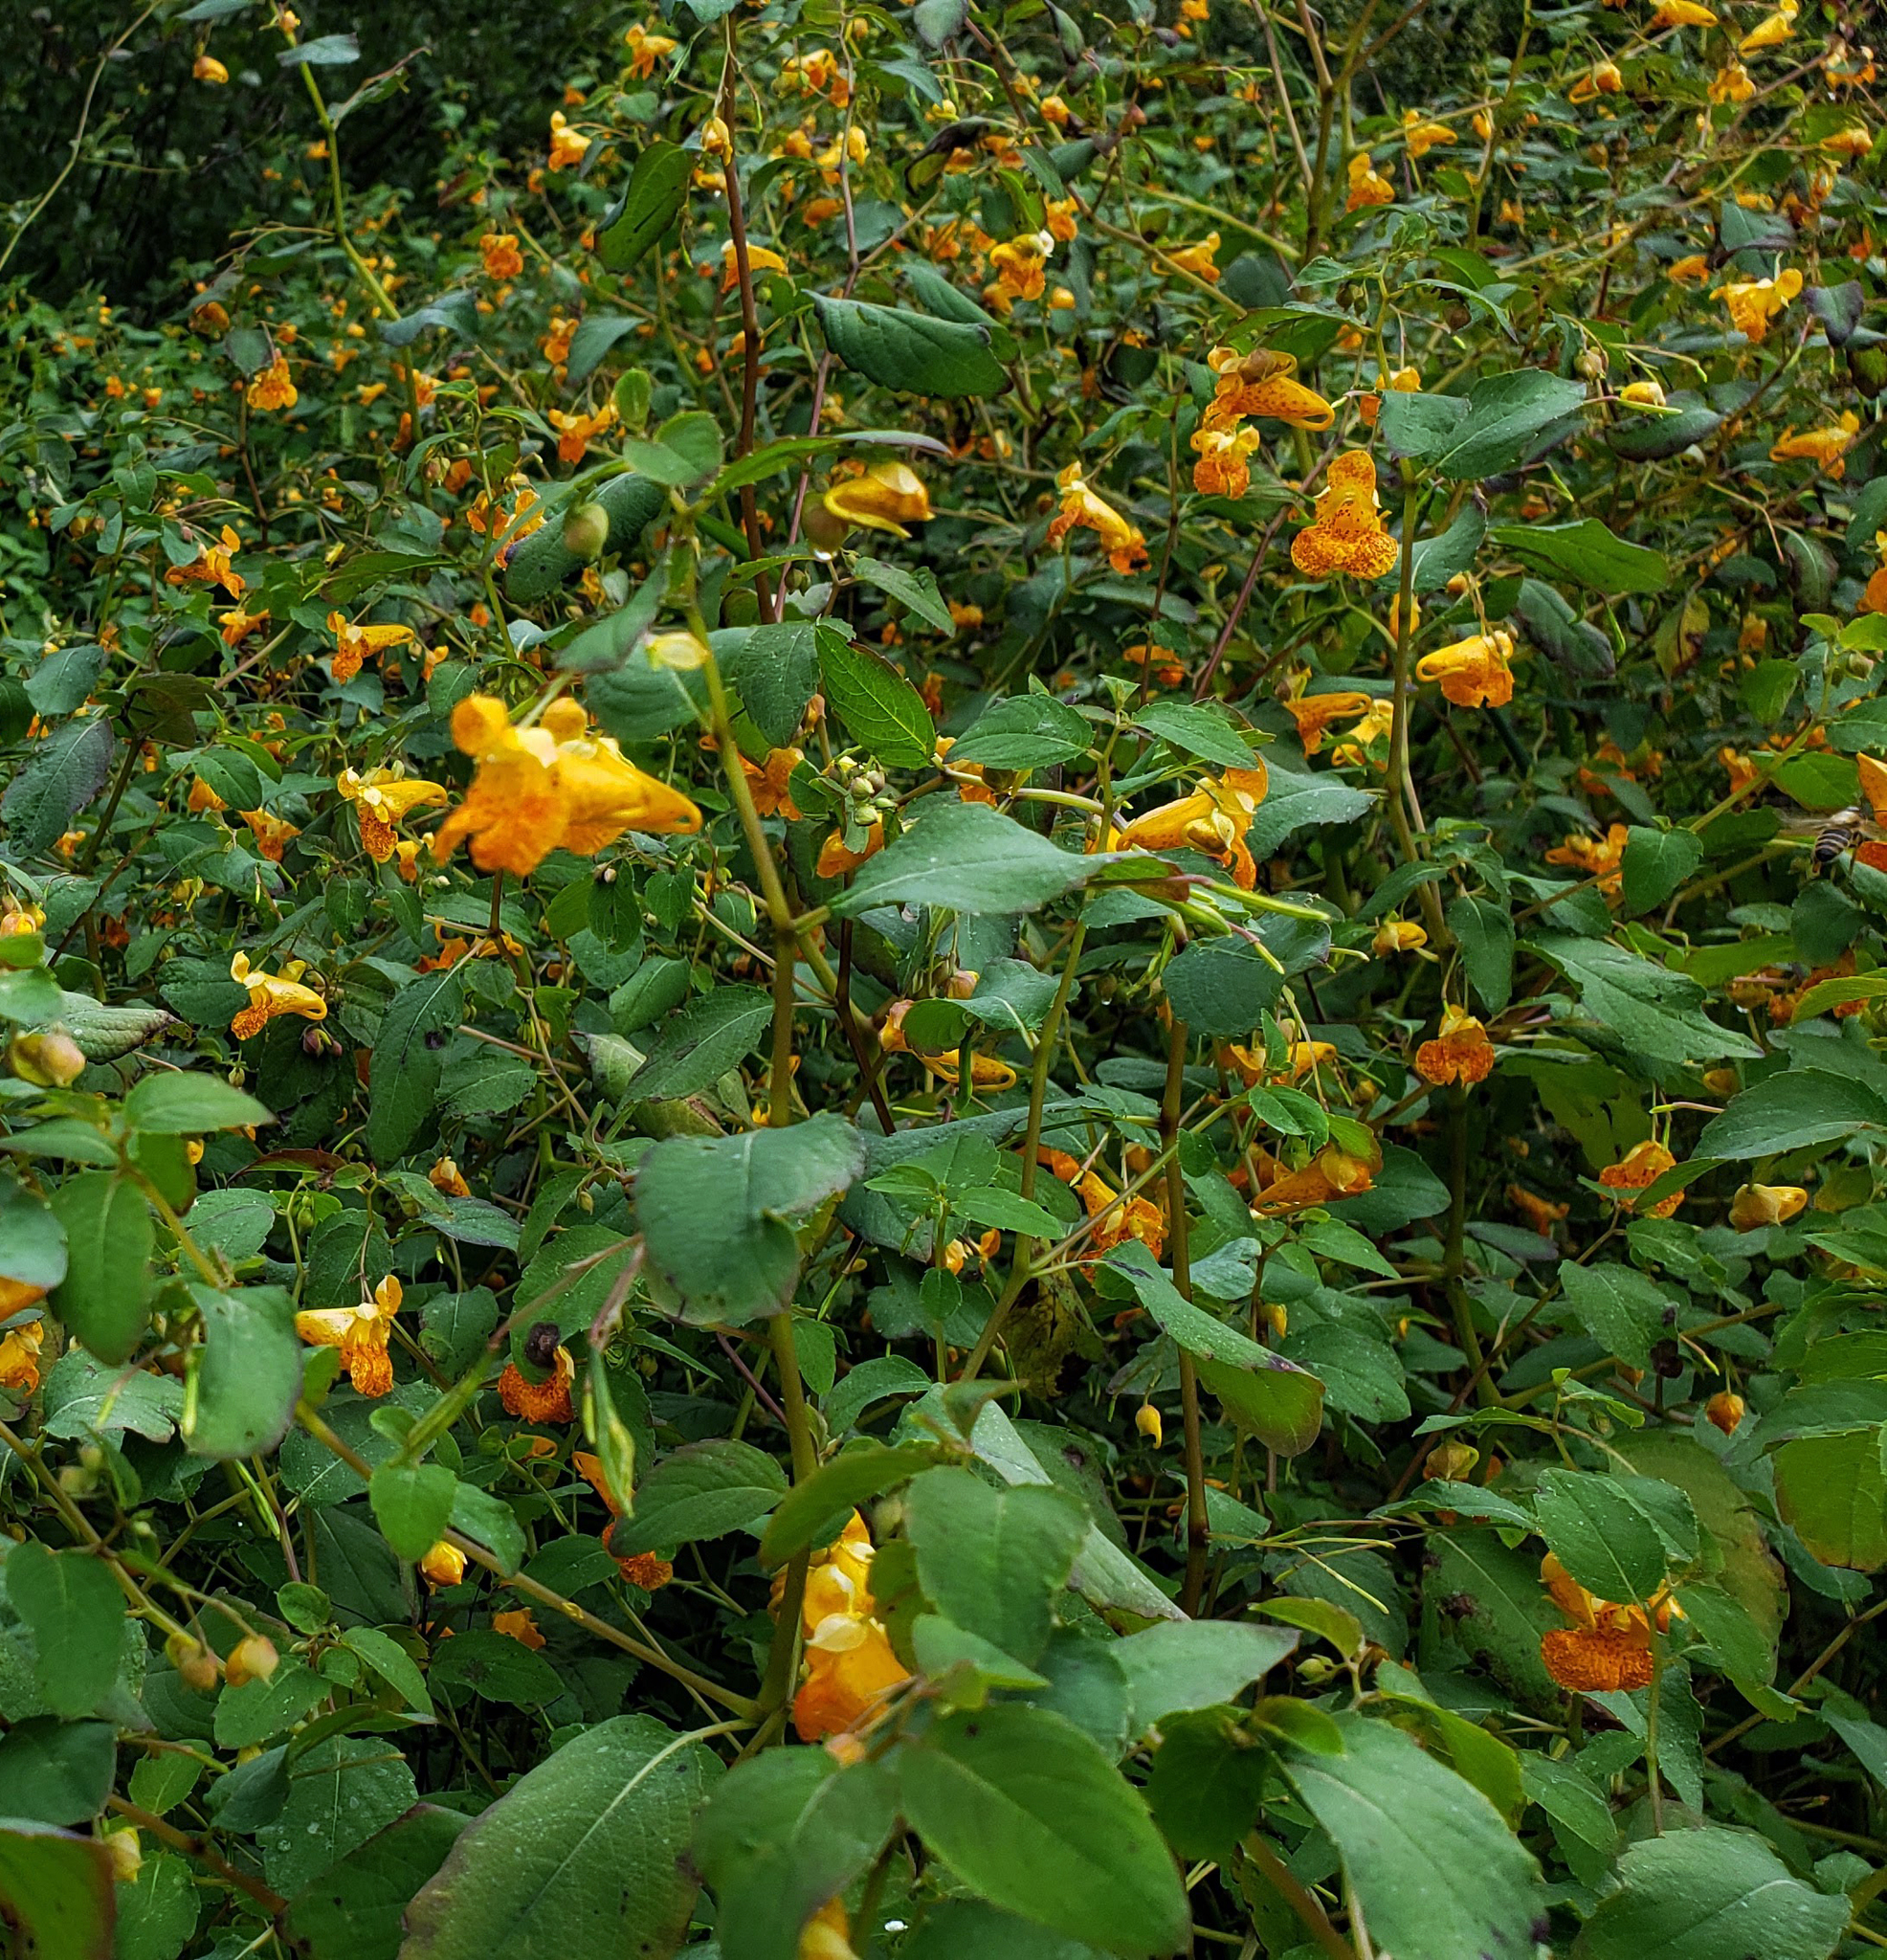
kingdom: Plantae
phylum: Tracheophyta
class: Magnoliopsida
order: Ericales
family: Balsaminaceae
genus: Impatiens
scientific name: Impatiens capensis
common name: Orange balsam
